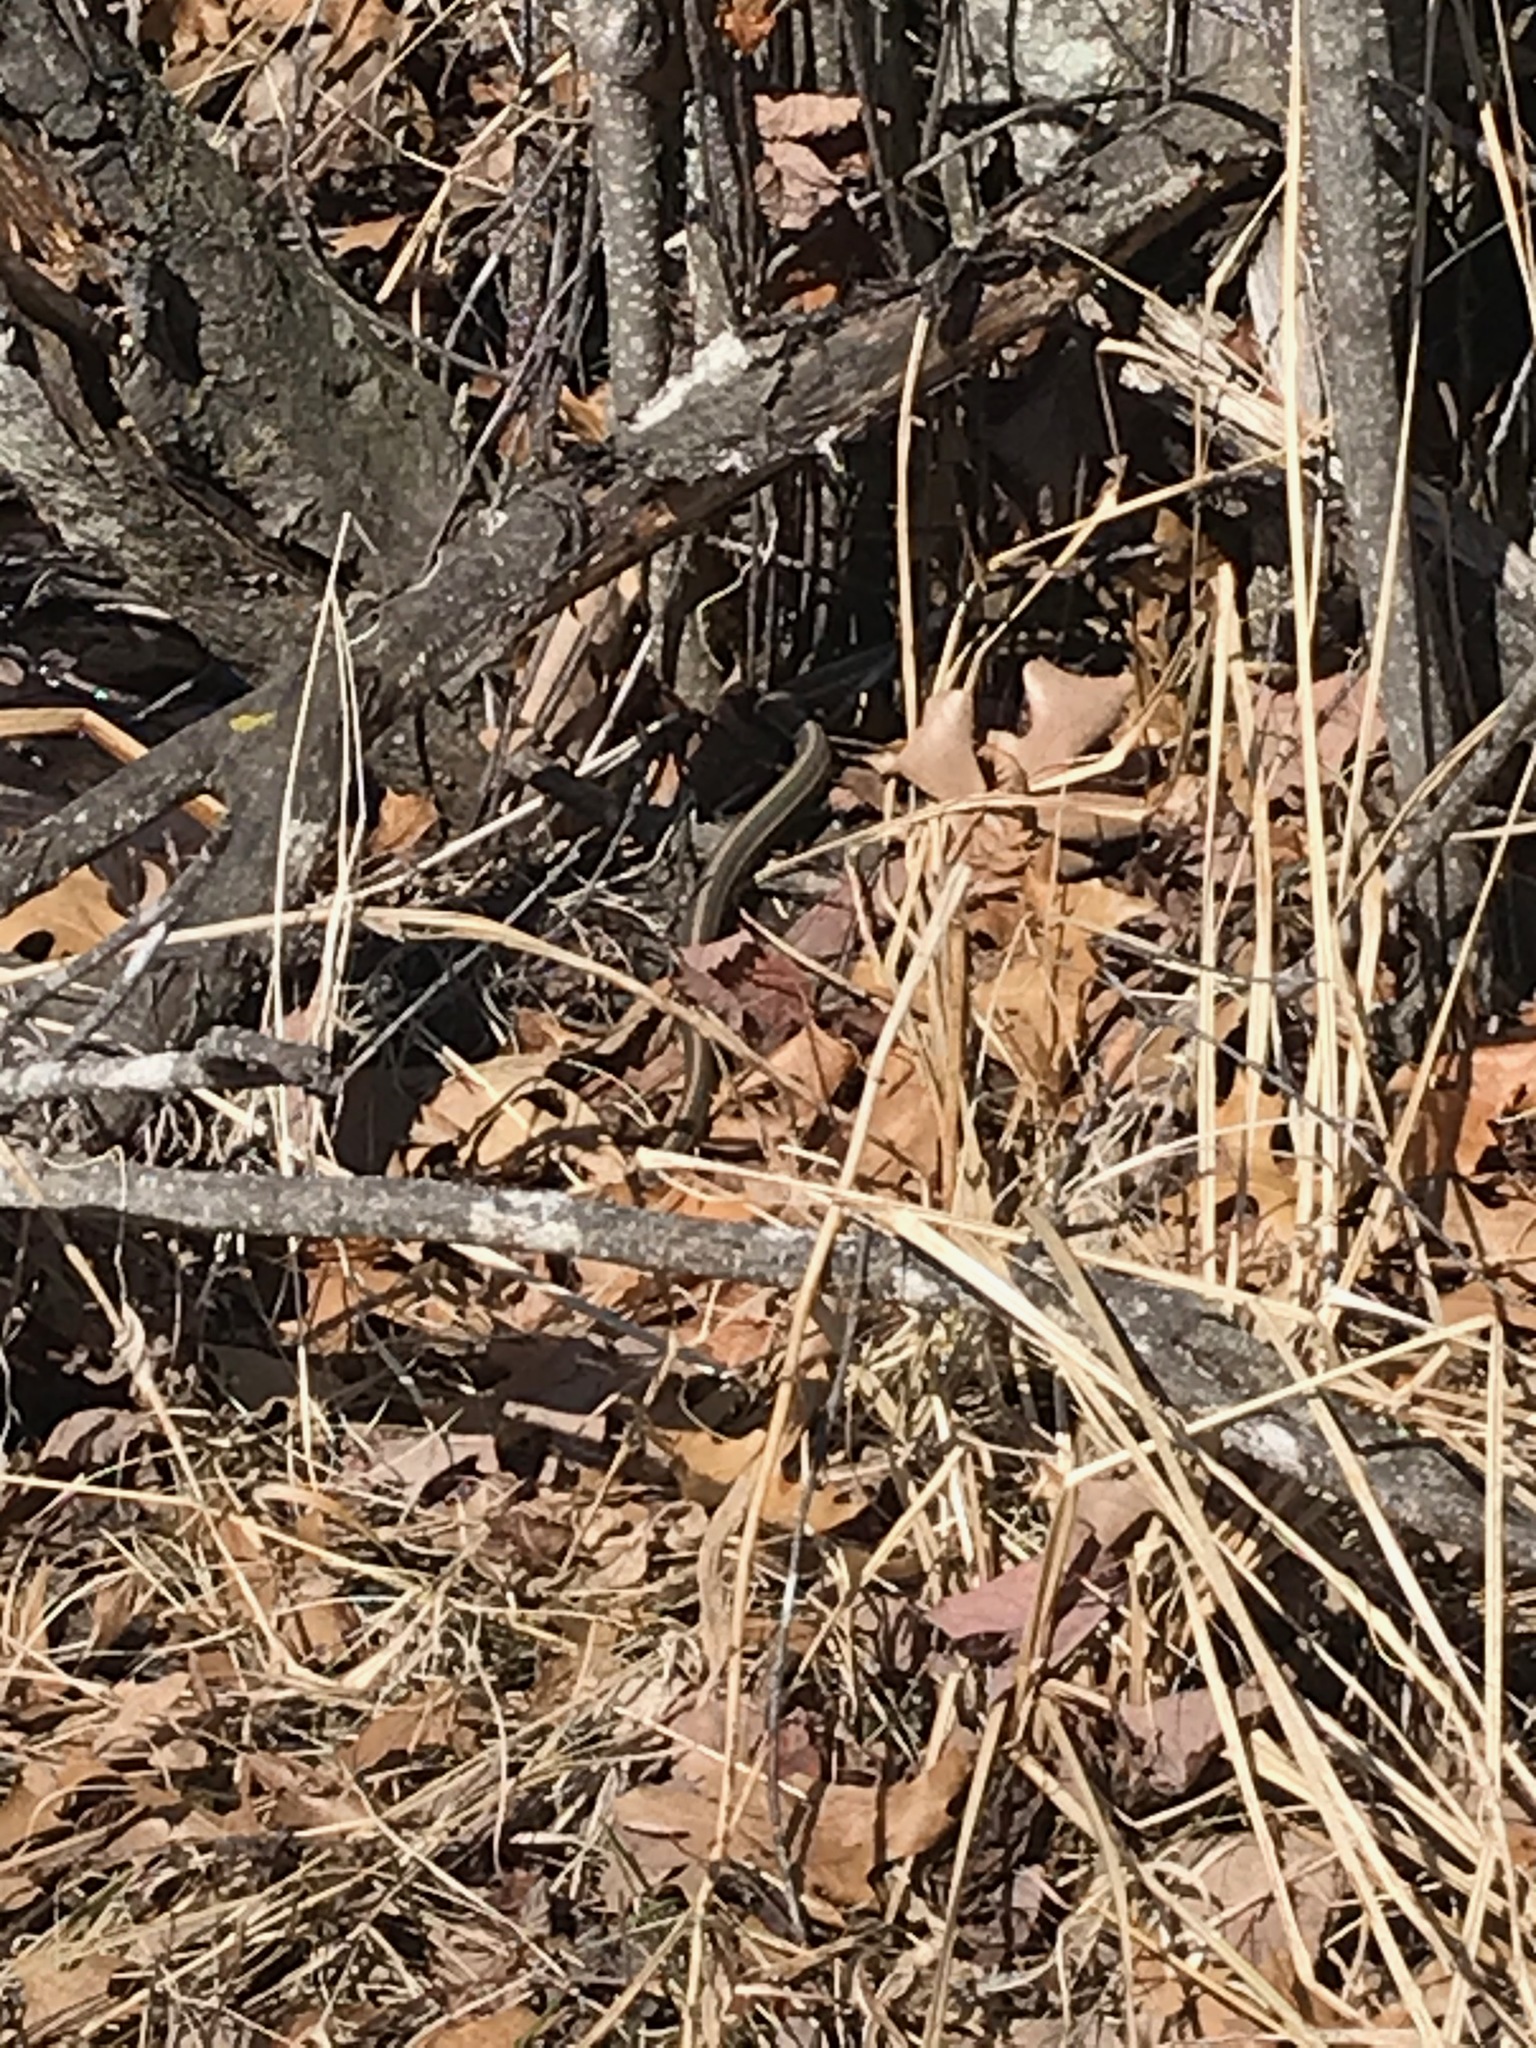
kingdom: Animalia
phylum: Chordata
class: Squamata
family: Colubridae
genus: Thamnophis
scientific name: Thamnophis sirtalis
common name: Common garter snake
